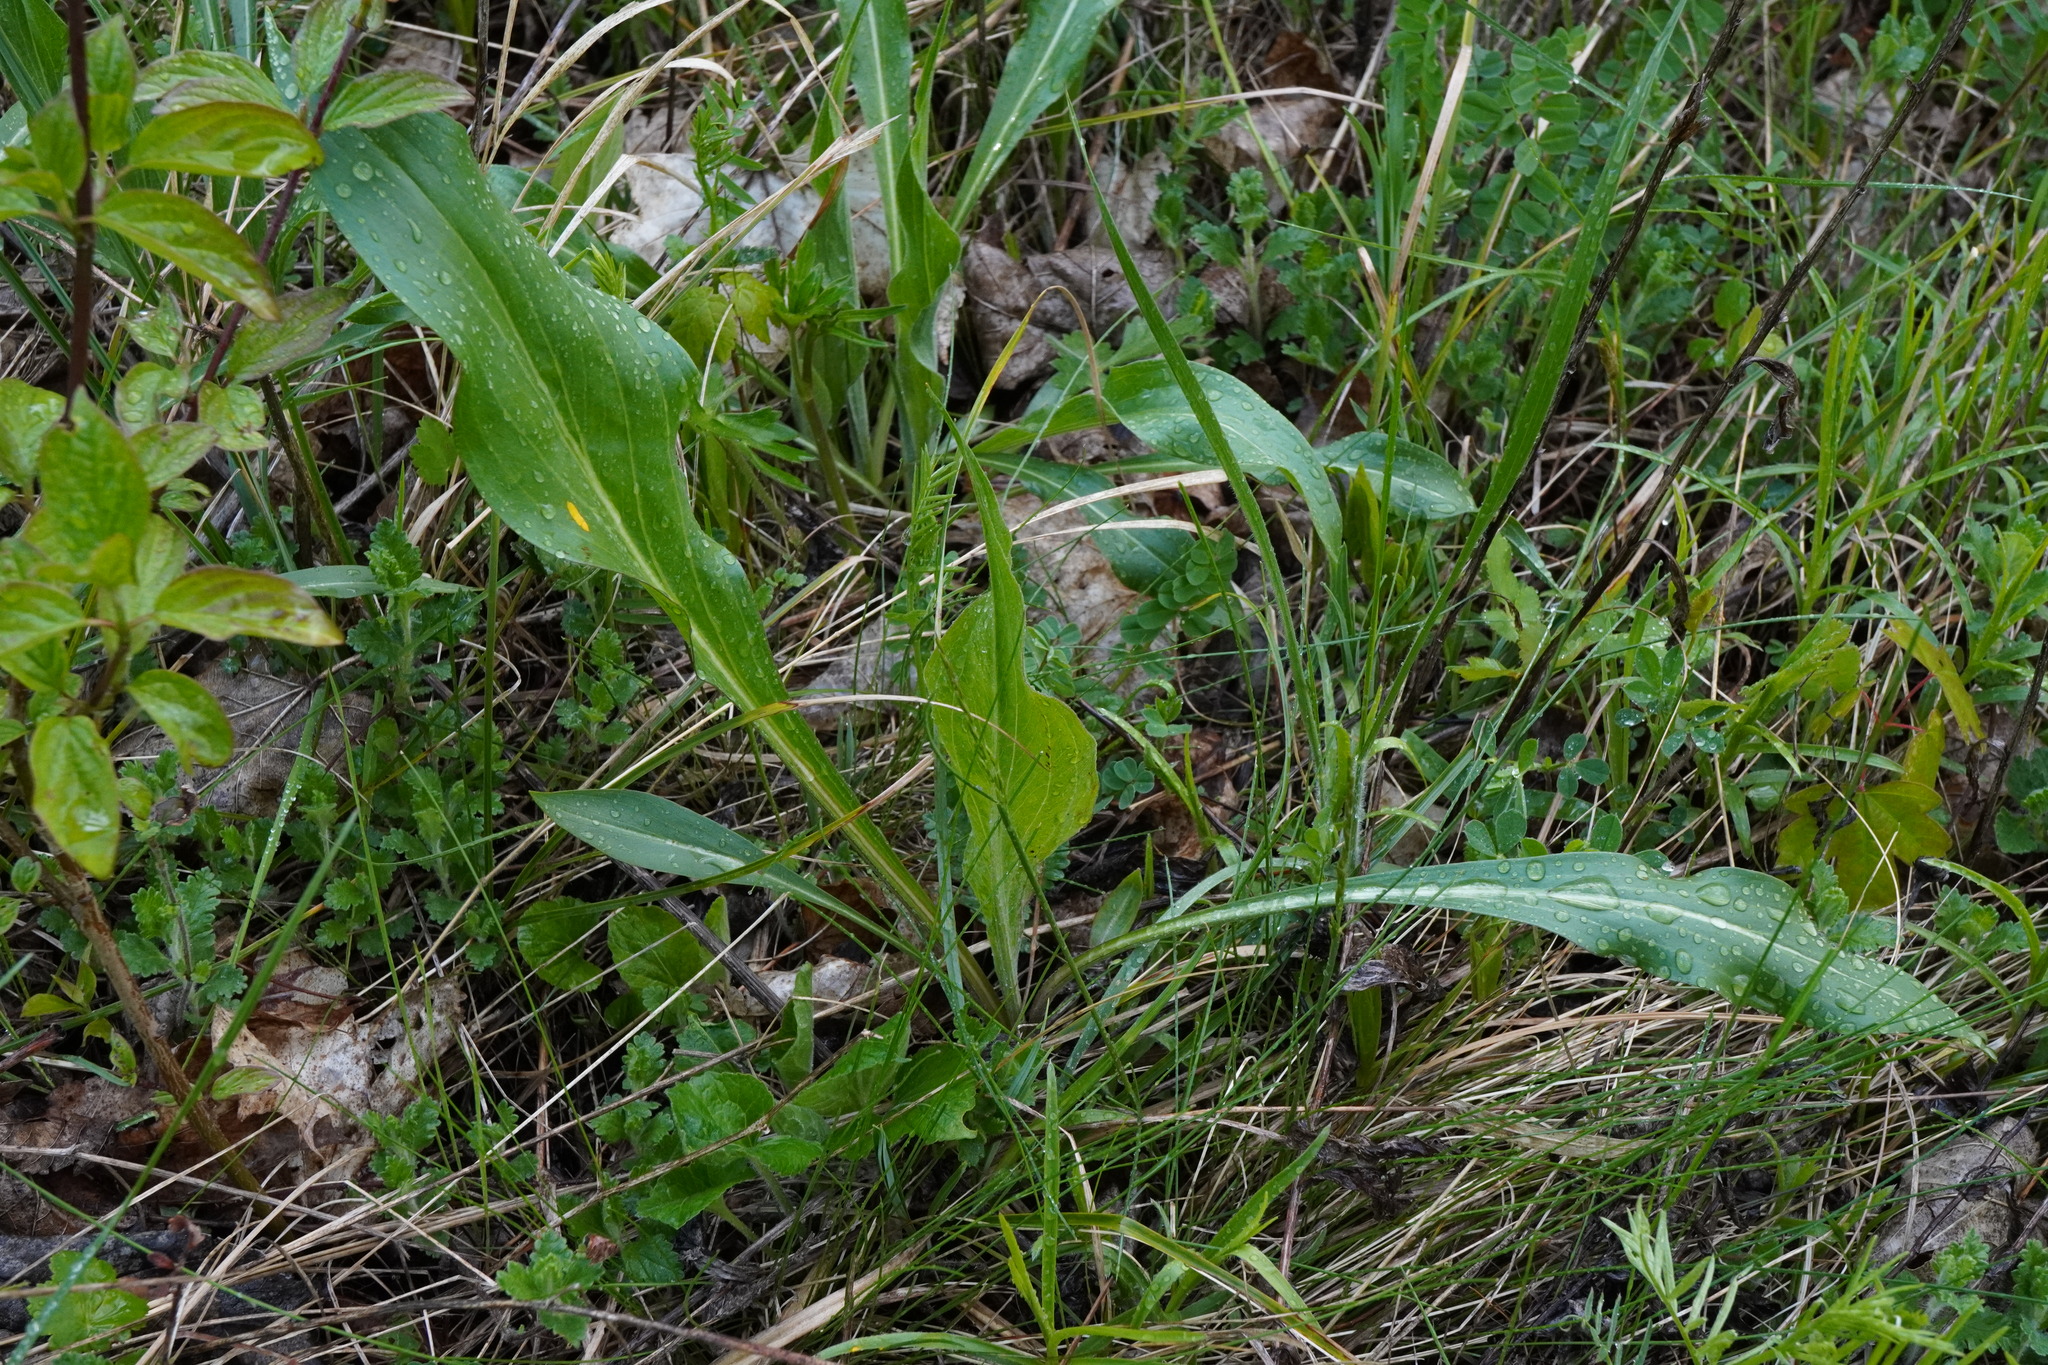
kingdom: Plantae
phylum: Tracheophyta
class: Magnoliopsida
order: Asterales
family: Asteraceae
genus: Pseudopodospermum
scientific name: Pseudopodospermum hispanicum
